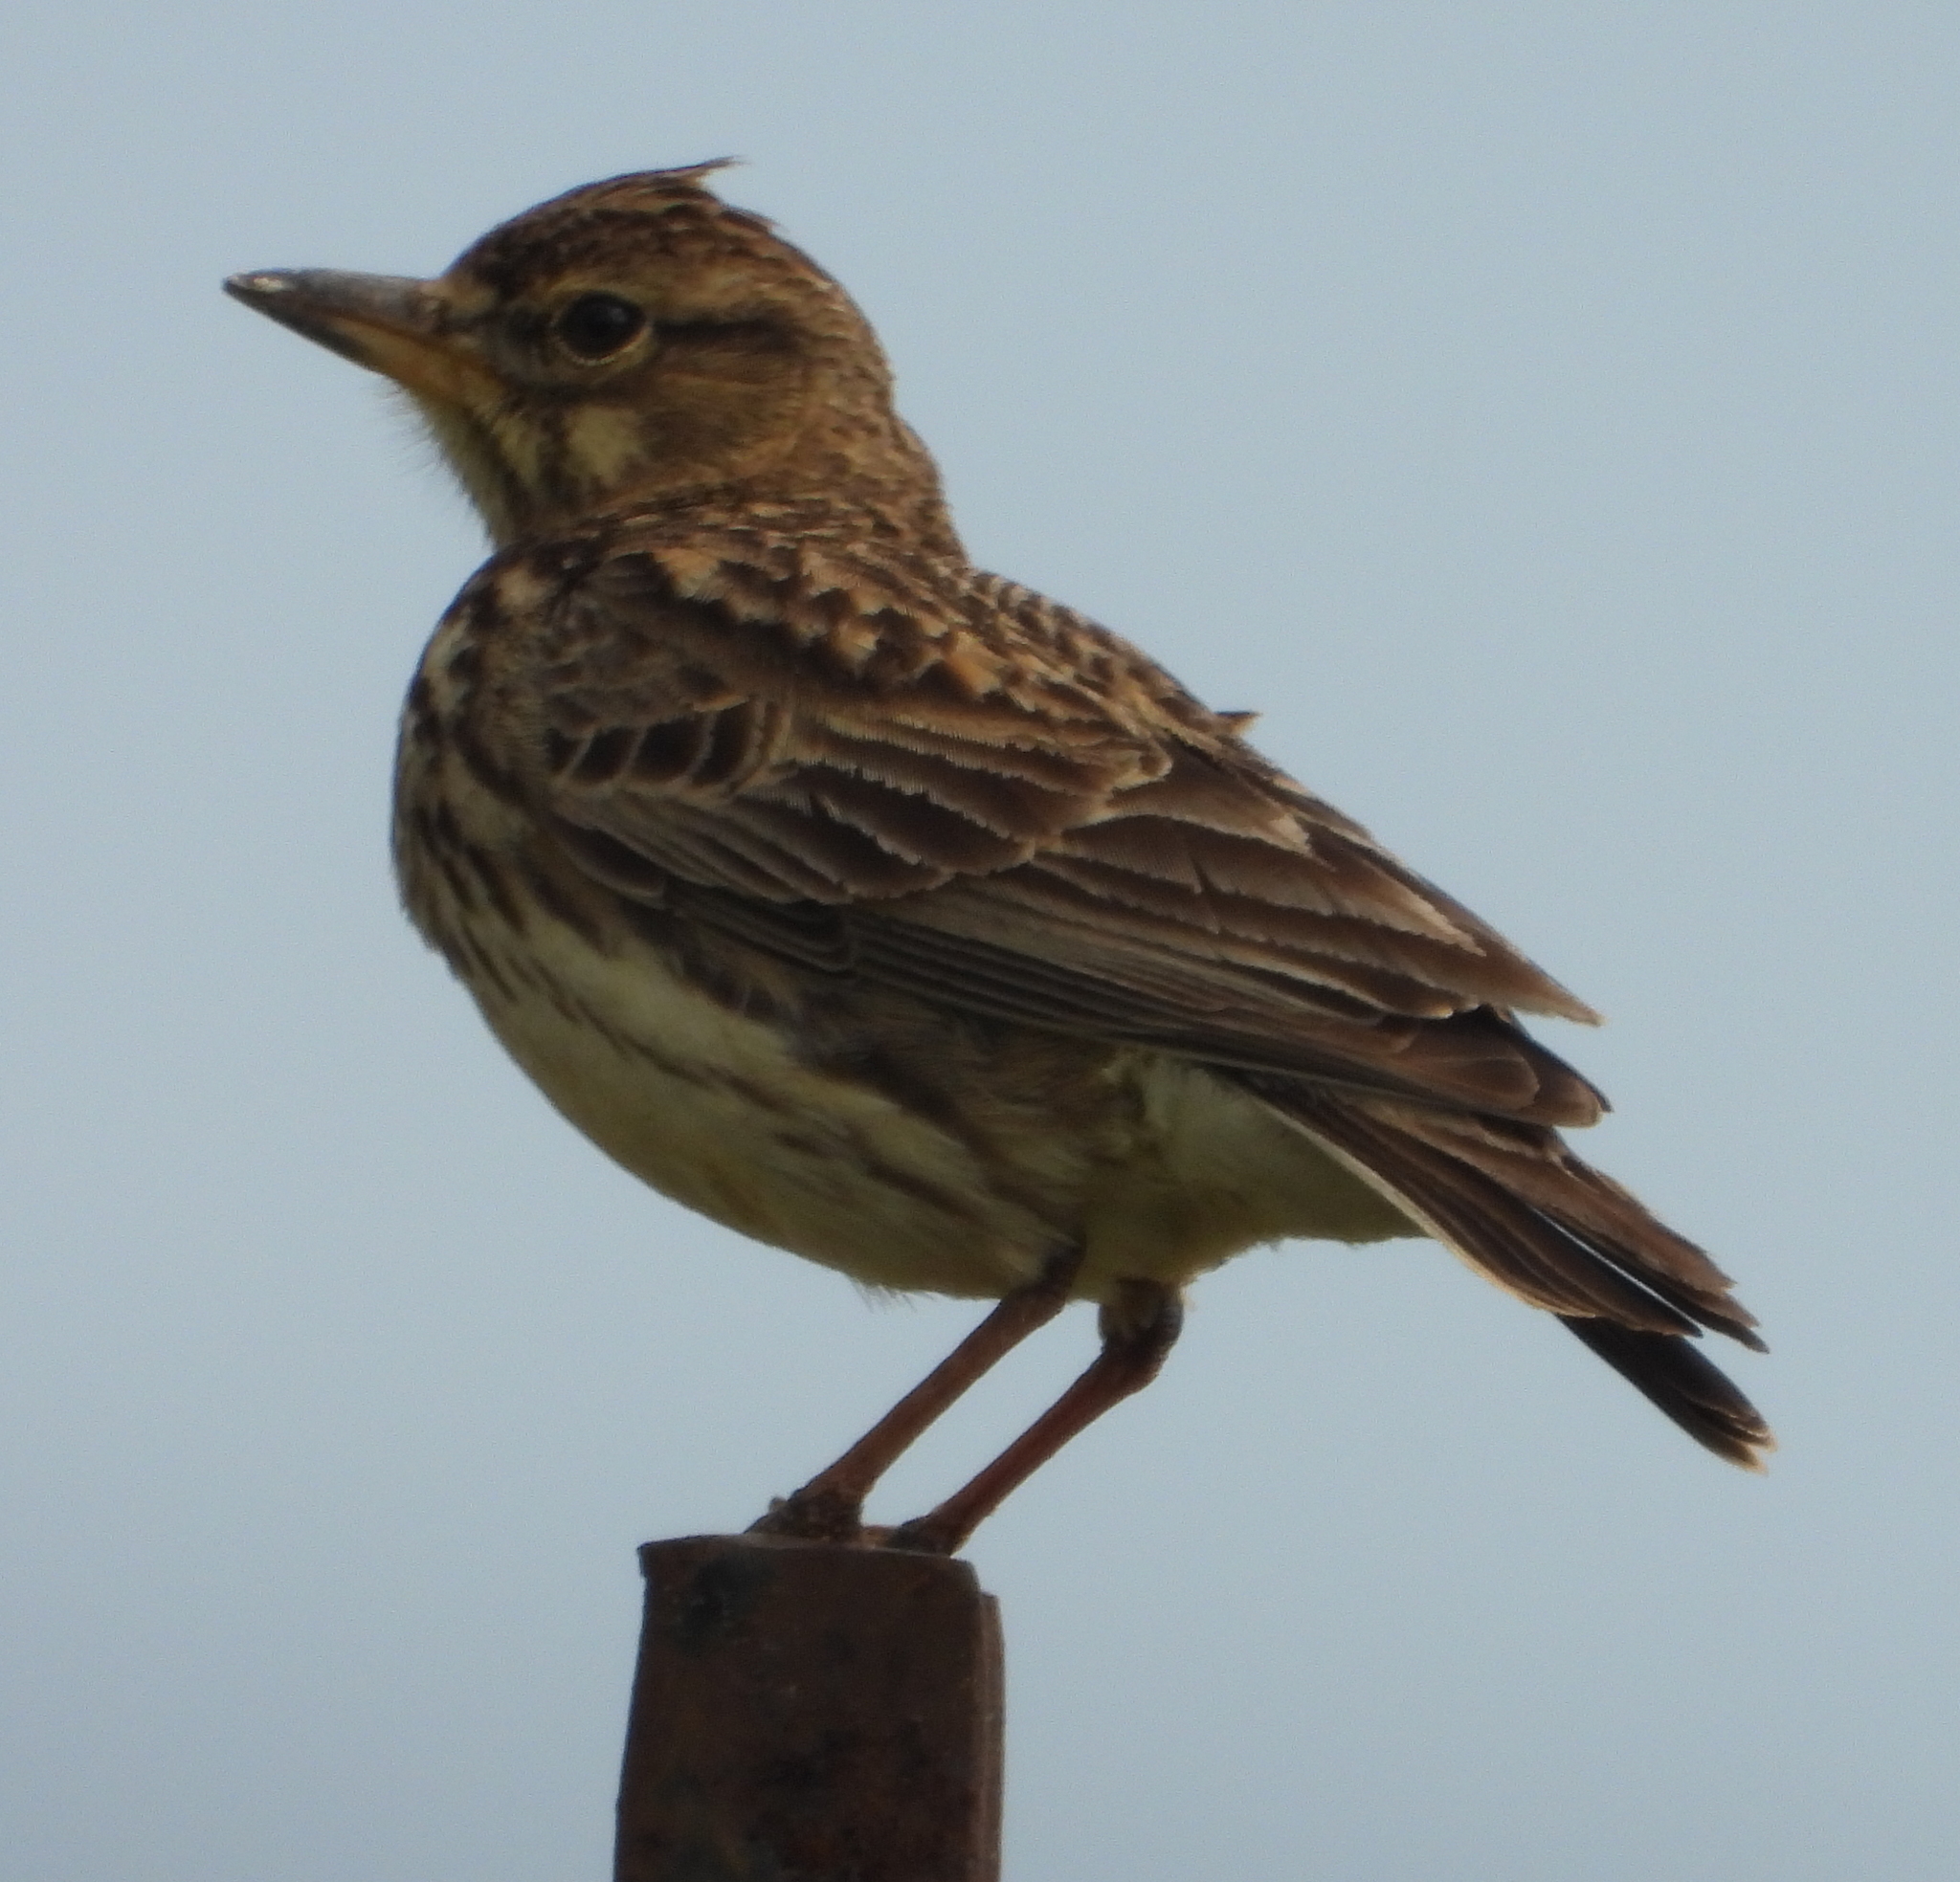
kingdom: Animalia
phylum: Chordata
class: Aves
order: Passeriformes
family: Alaudidae
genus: Galerida
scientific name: Galerida magnirostris
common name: Large-billed lark
